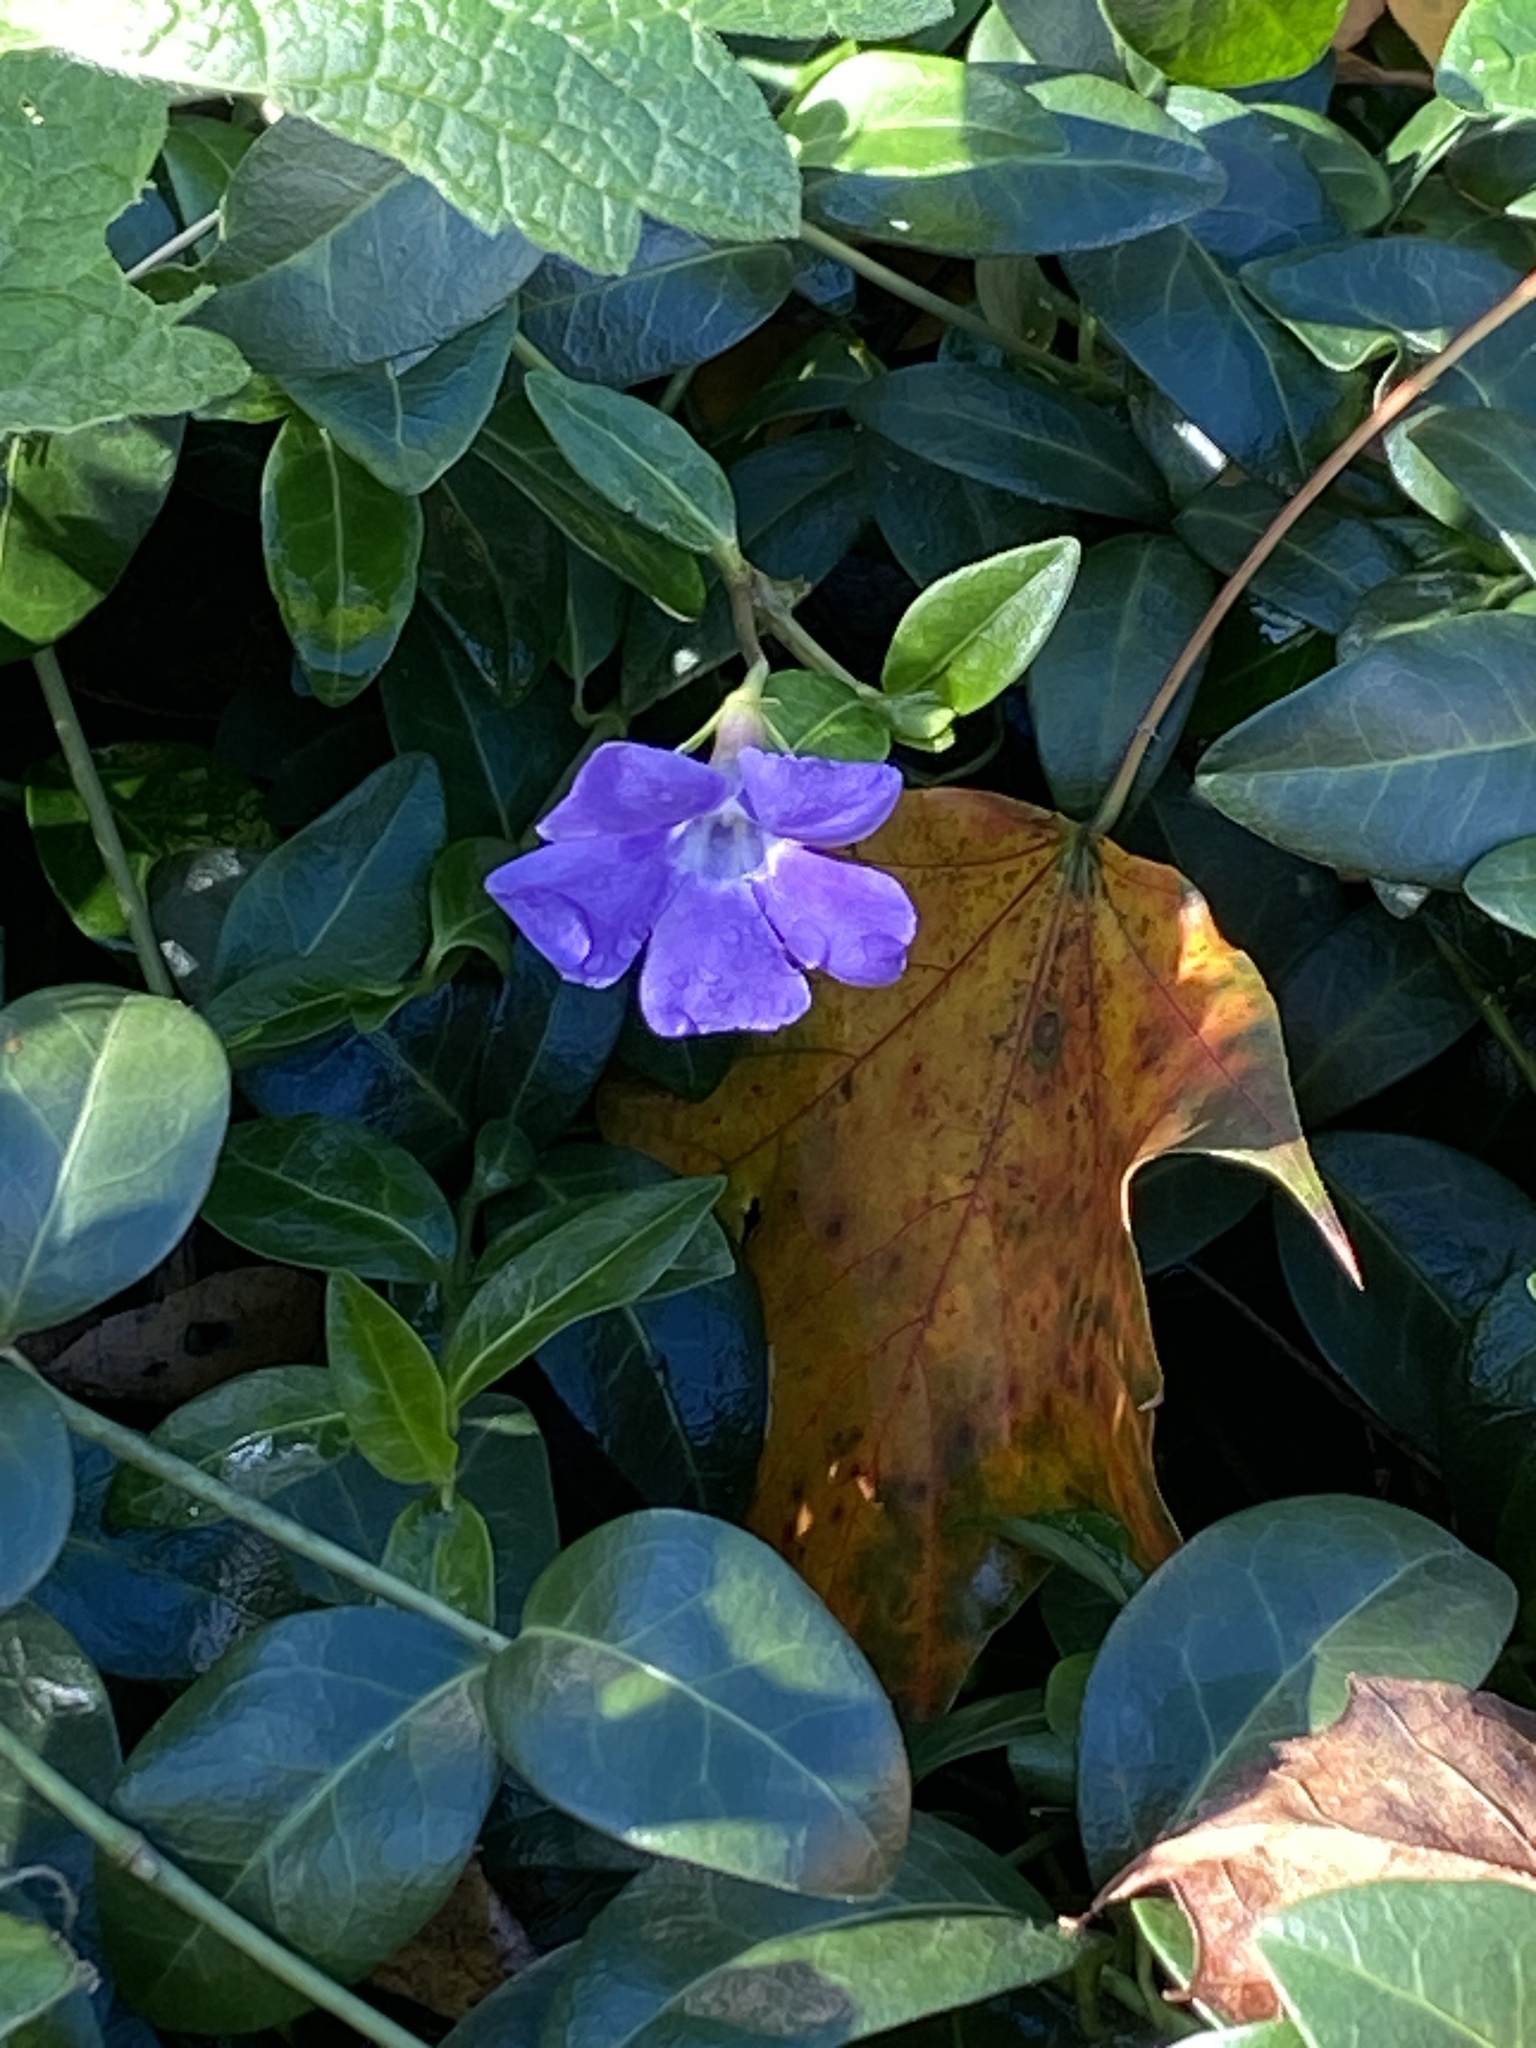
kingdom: Plantae
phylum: Tracheophyta
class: Magnoliopsida
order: Gentianales
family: Apocynaceae
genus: Vinca
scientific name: Vinca minor
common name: Lesser periwinkle
